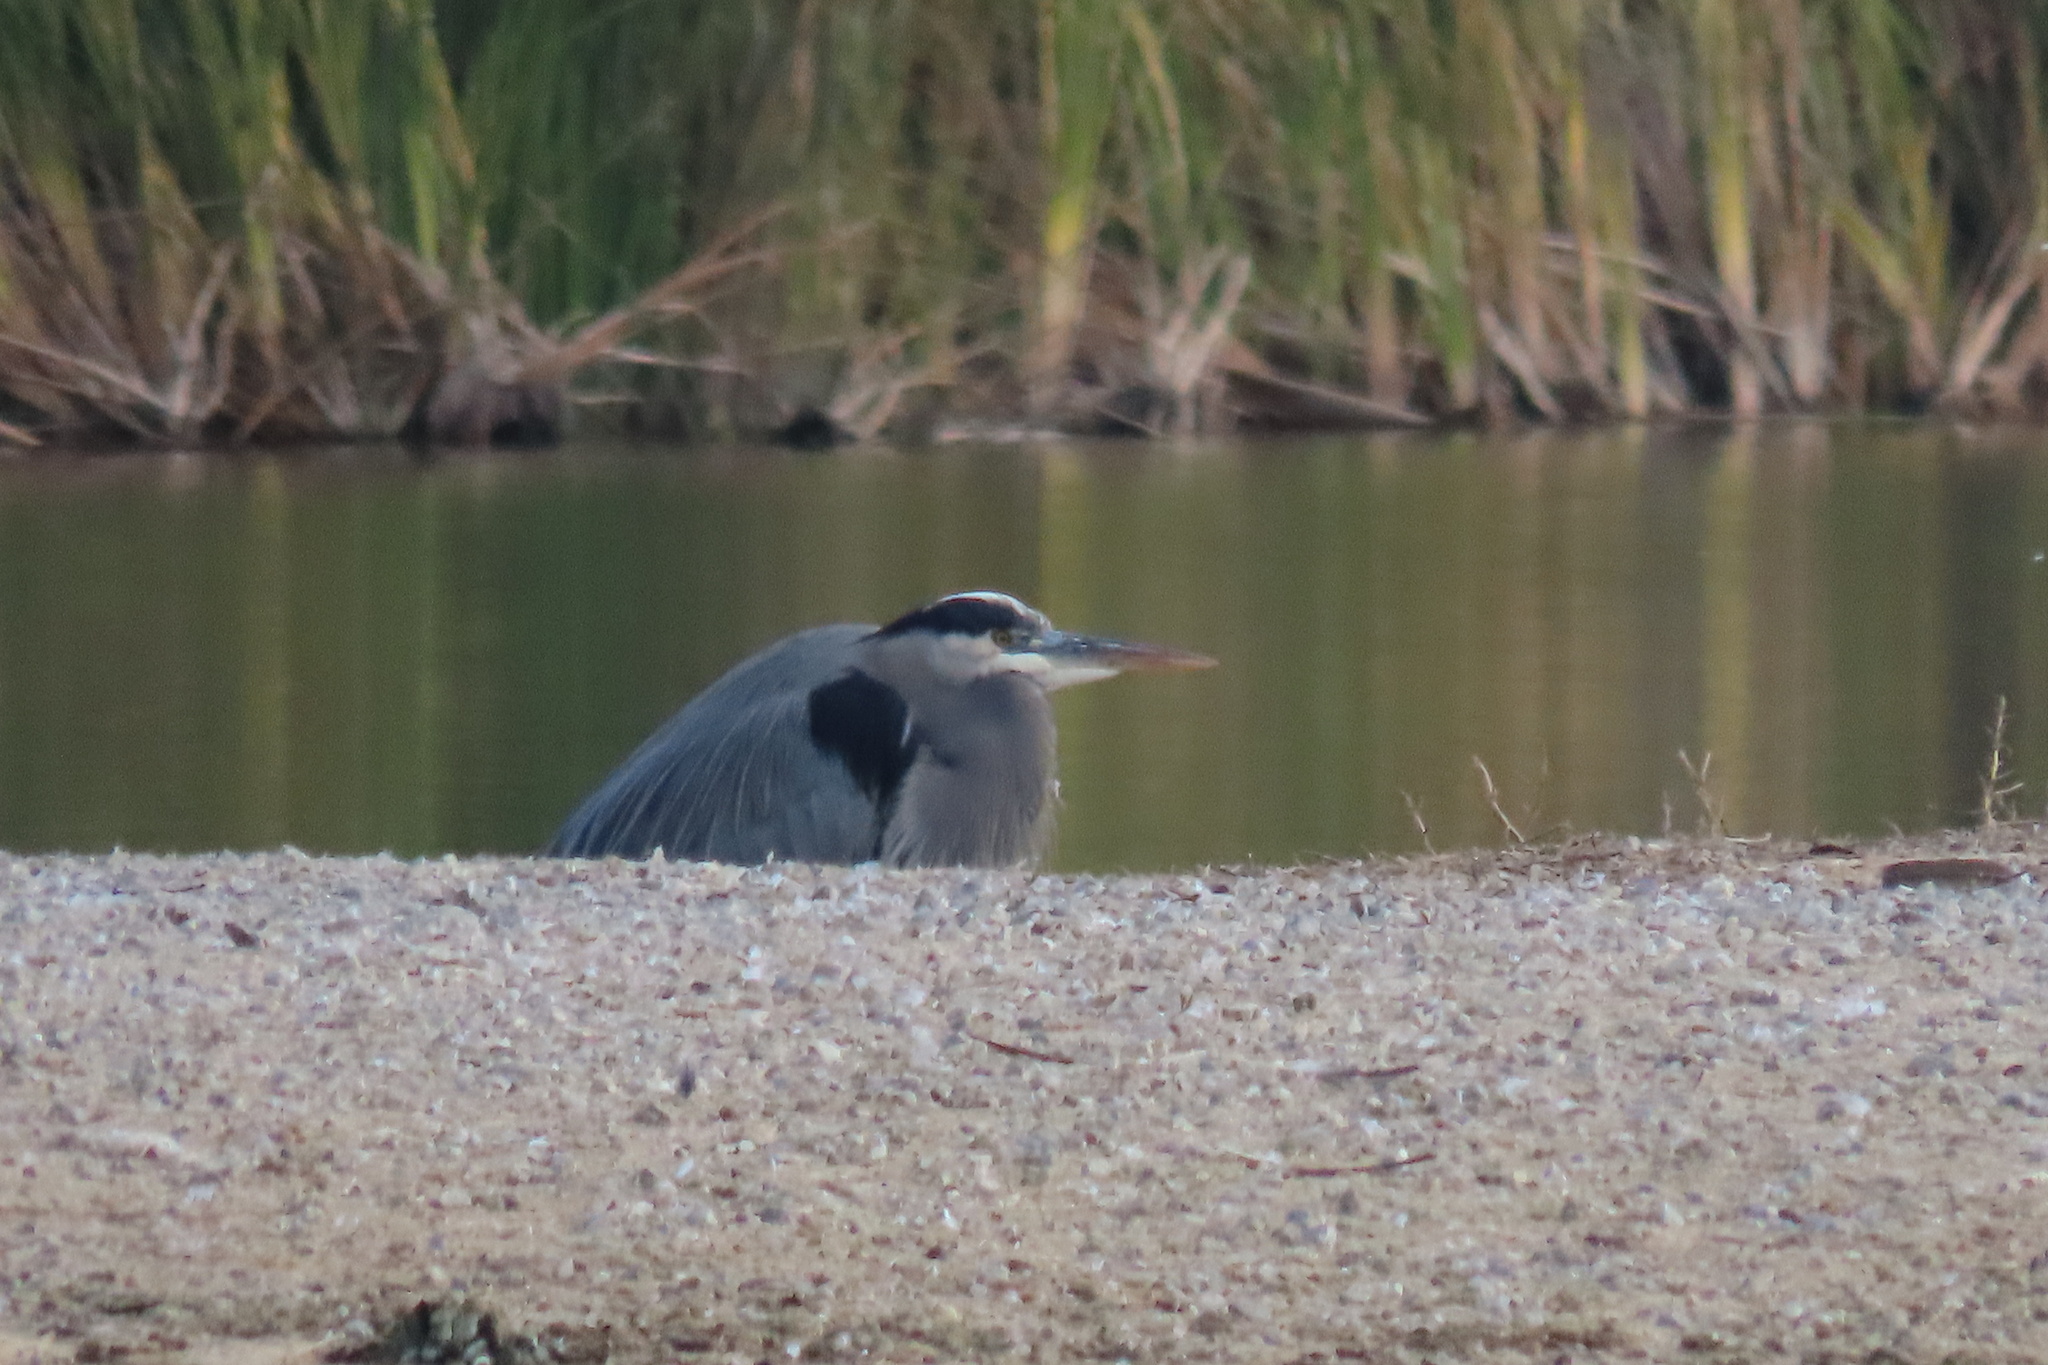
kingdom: Animalia
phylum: Chordata
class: Aves
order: Pelecaniformes
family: Ardeidae
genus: Ardea
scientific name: Ardea herodias
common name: Great blue heron
